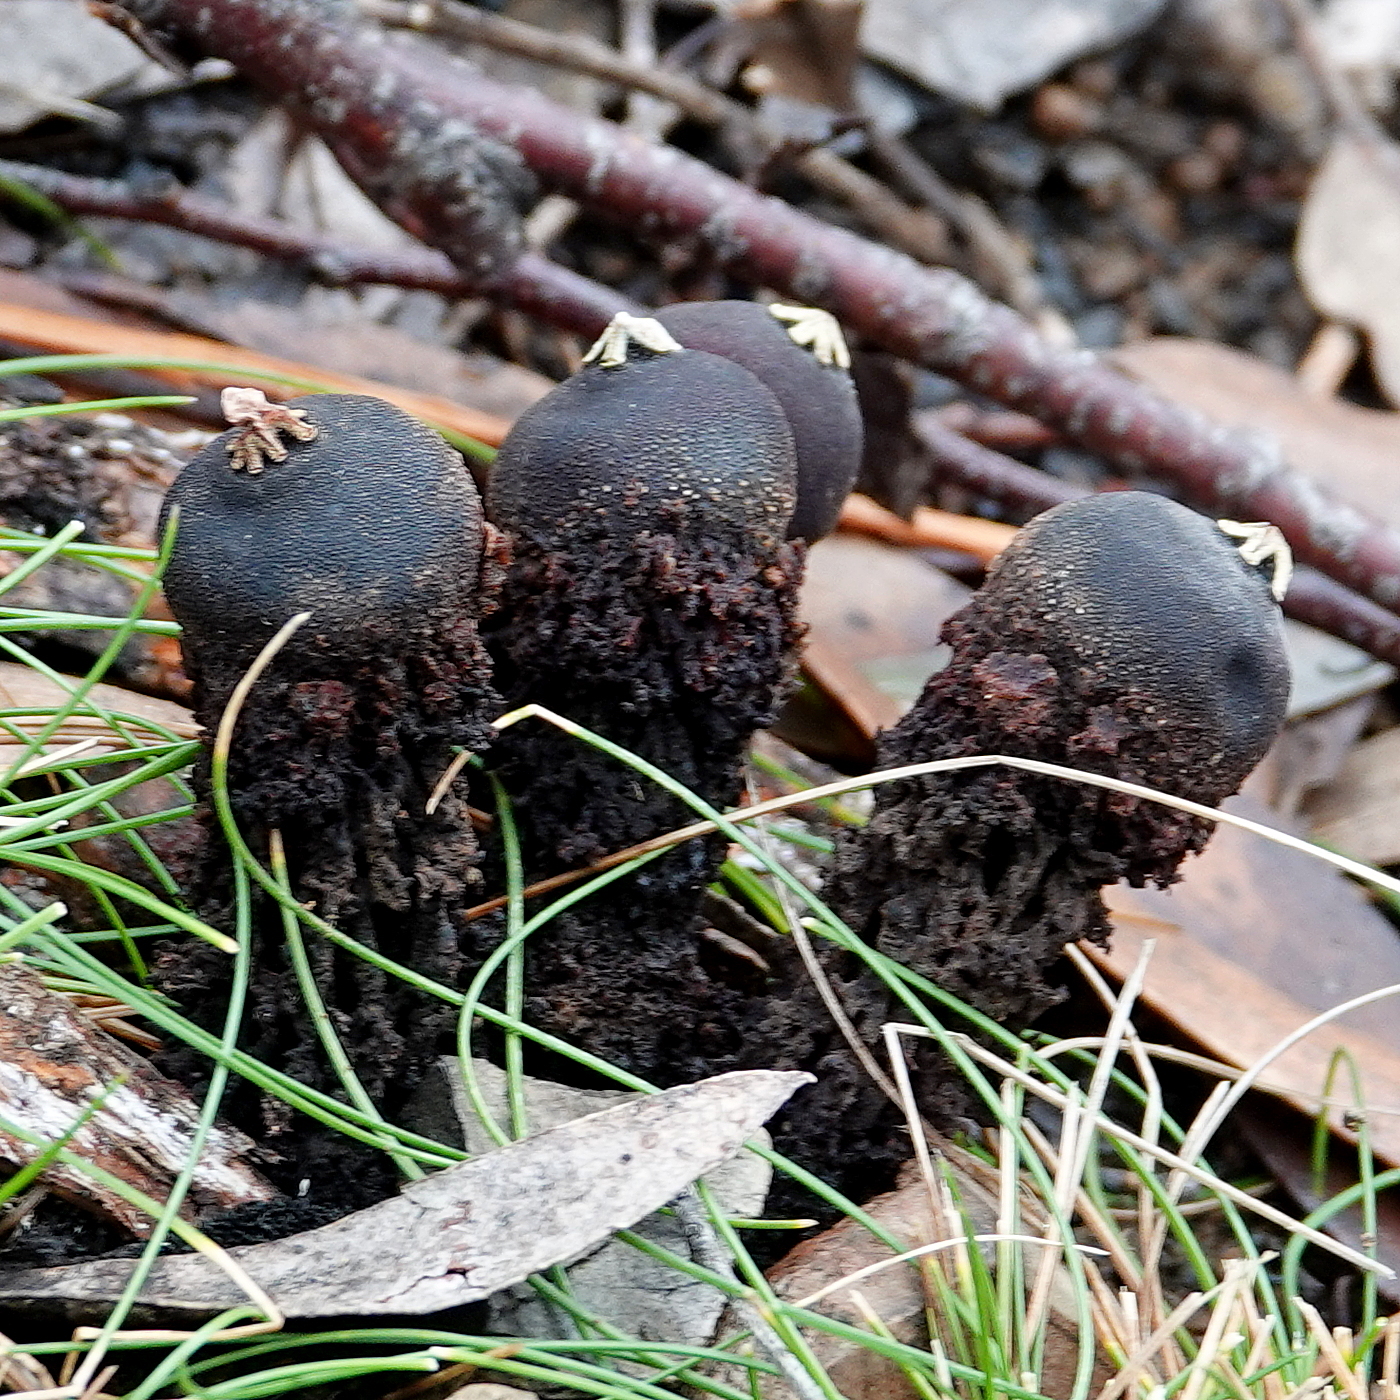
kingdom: Fungi
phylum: Basidiomycota
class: Agaricomycetes
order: Boletales
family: Calostomataceae
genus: Calostoma
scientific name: Calostoma fuscum
